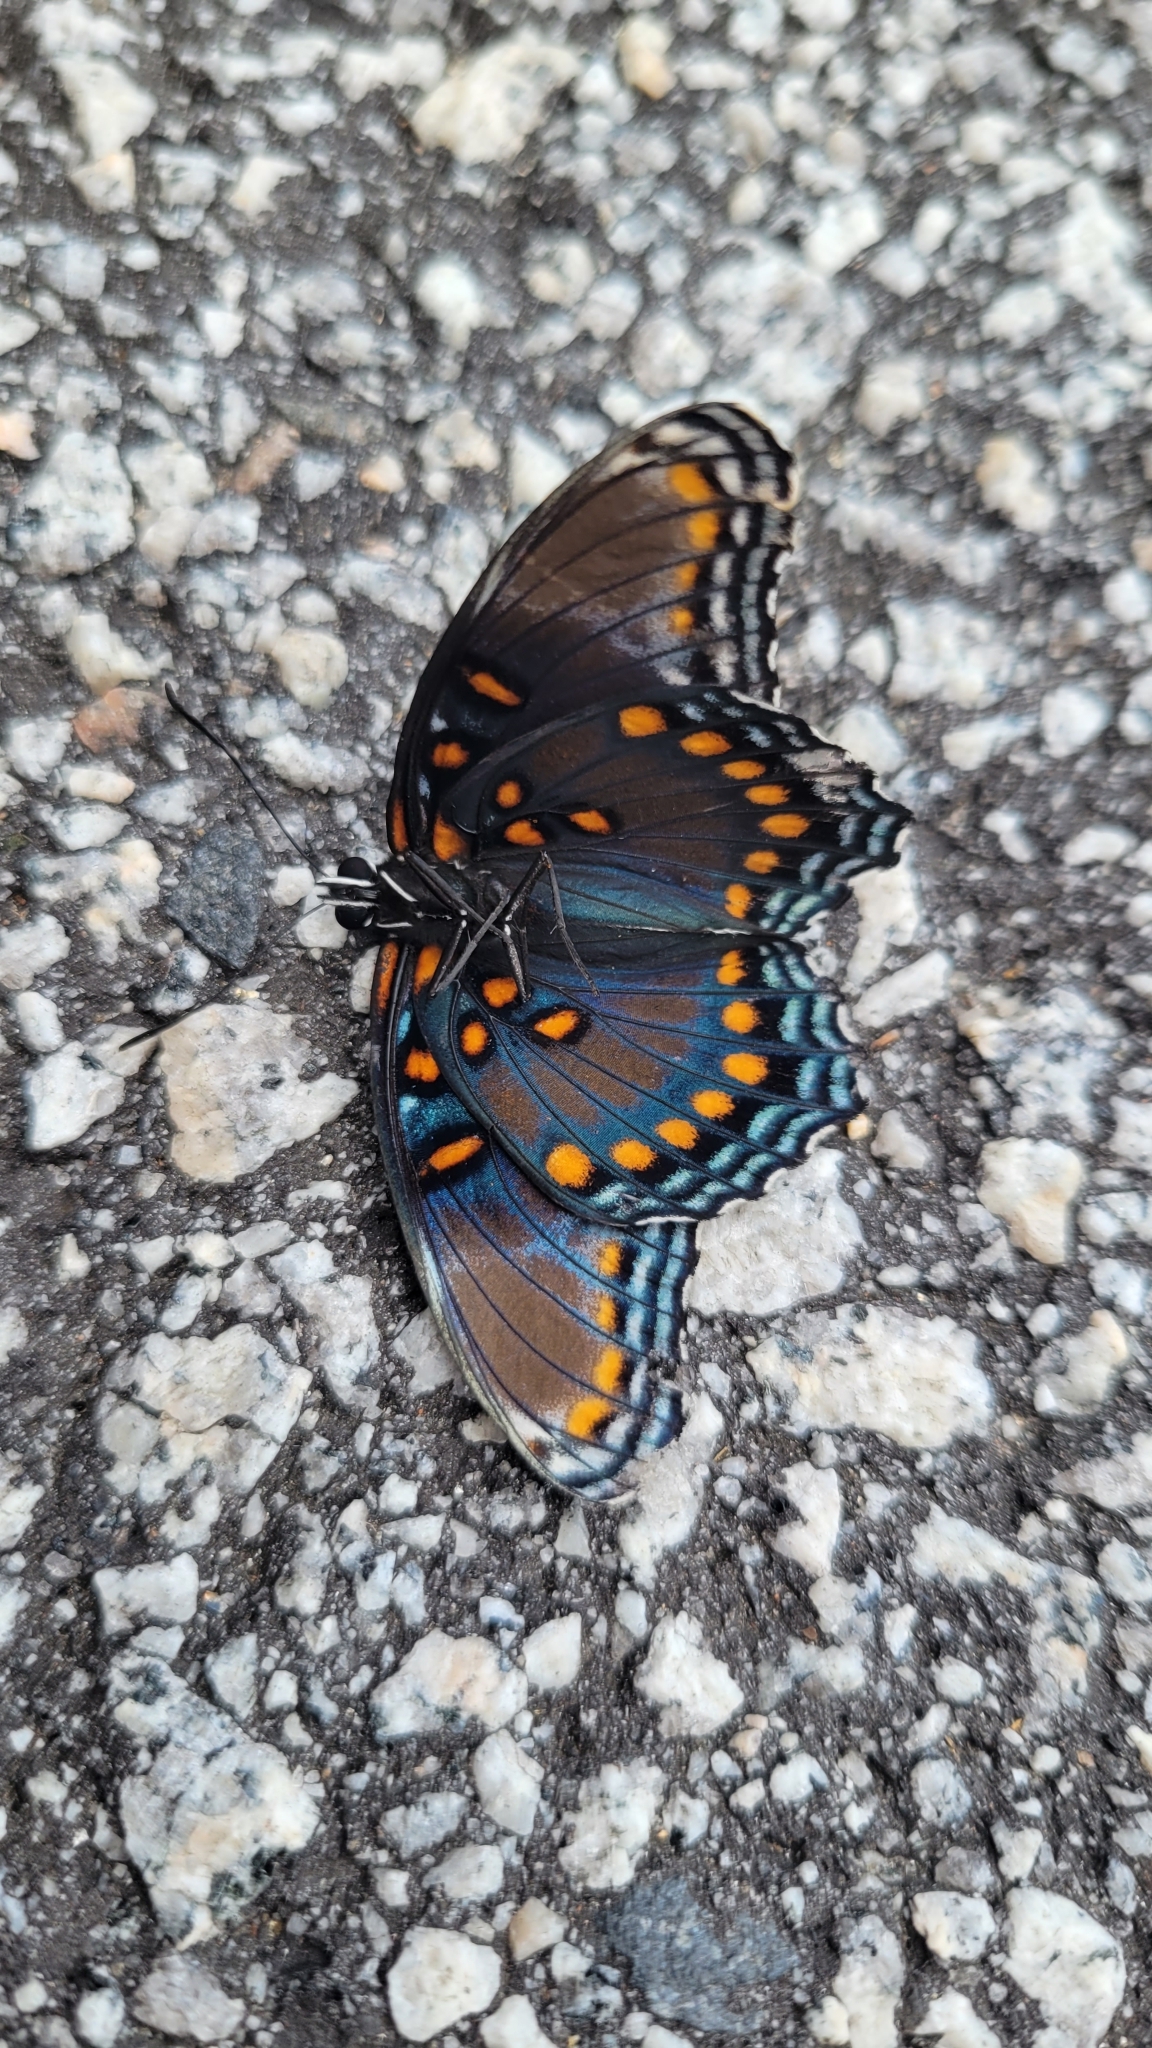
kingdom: Animalia
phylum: Arthropoda
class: Insecta
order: Lepidoptera
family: Nymphalidae
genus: Limenitis
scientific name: Limenitis astyanax
